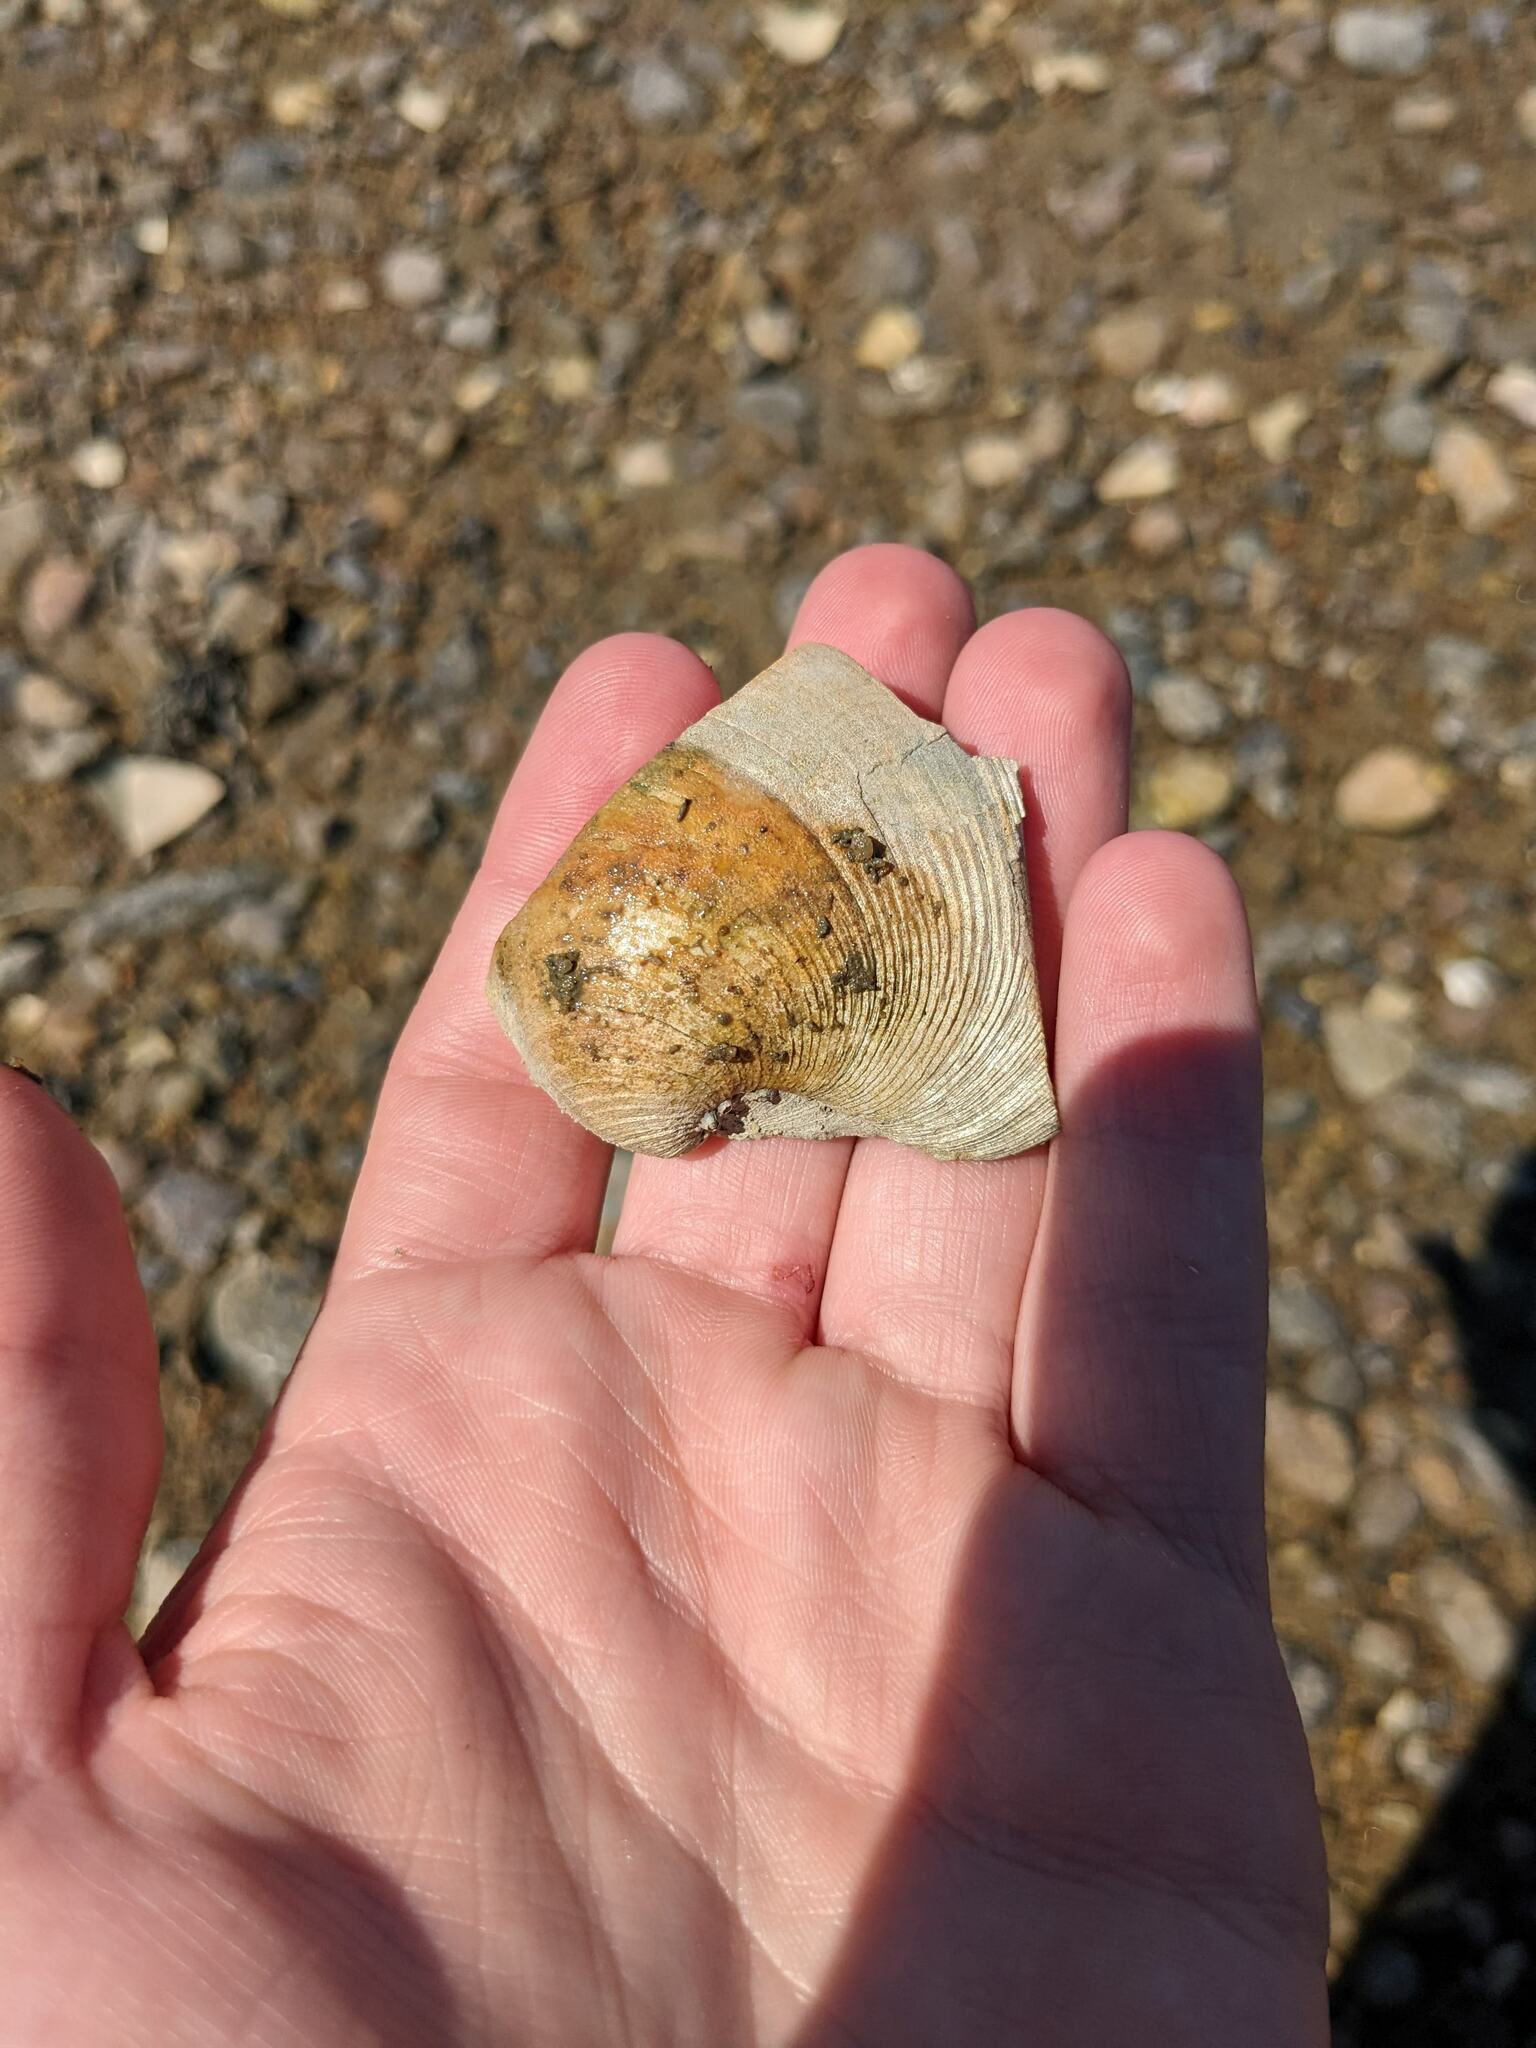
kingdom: Animalia
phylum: Mollusca
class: Bivalvia
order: Venerida
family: Veneridae
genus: Mercenaria
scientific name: Mercenaria mercenaria
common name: American hard-shelled clam
